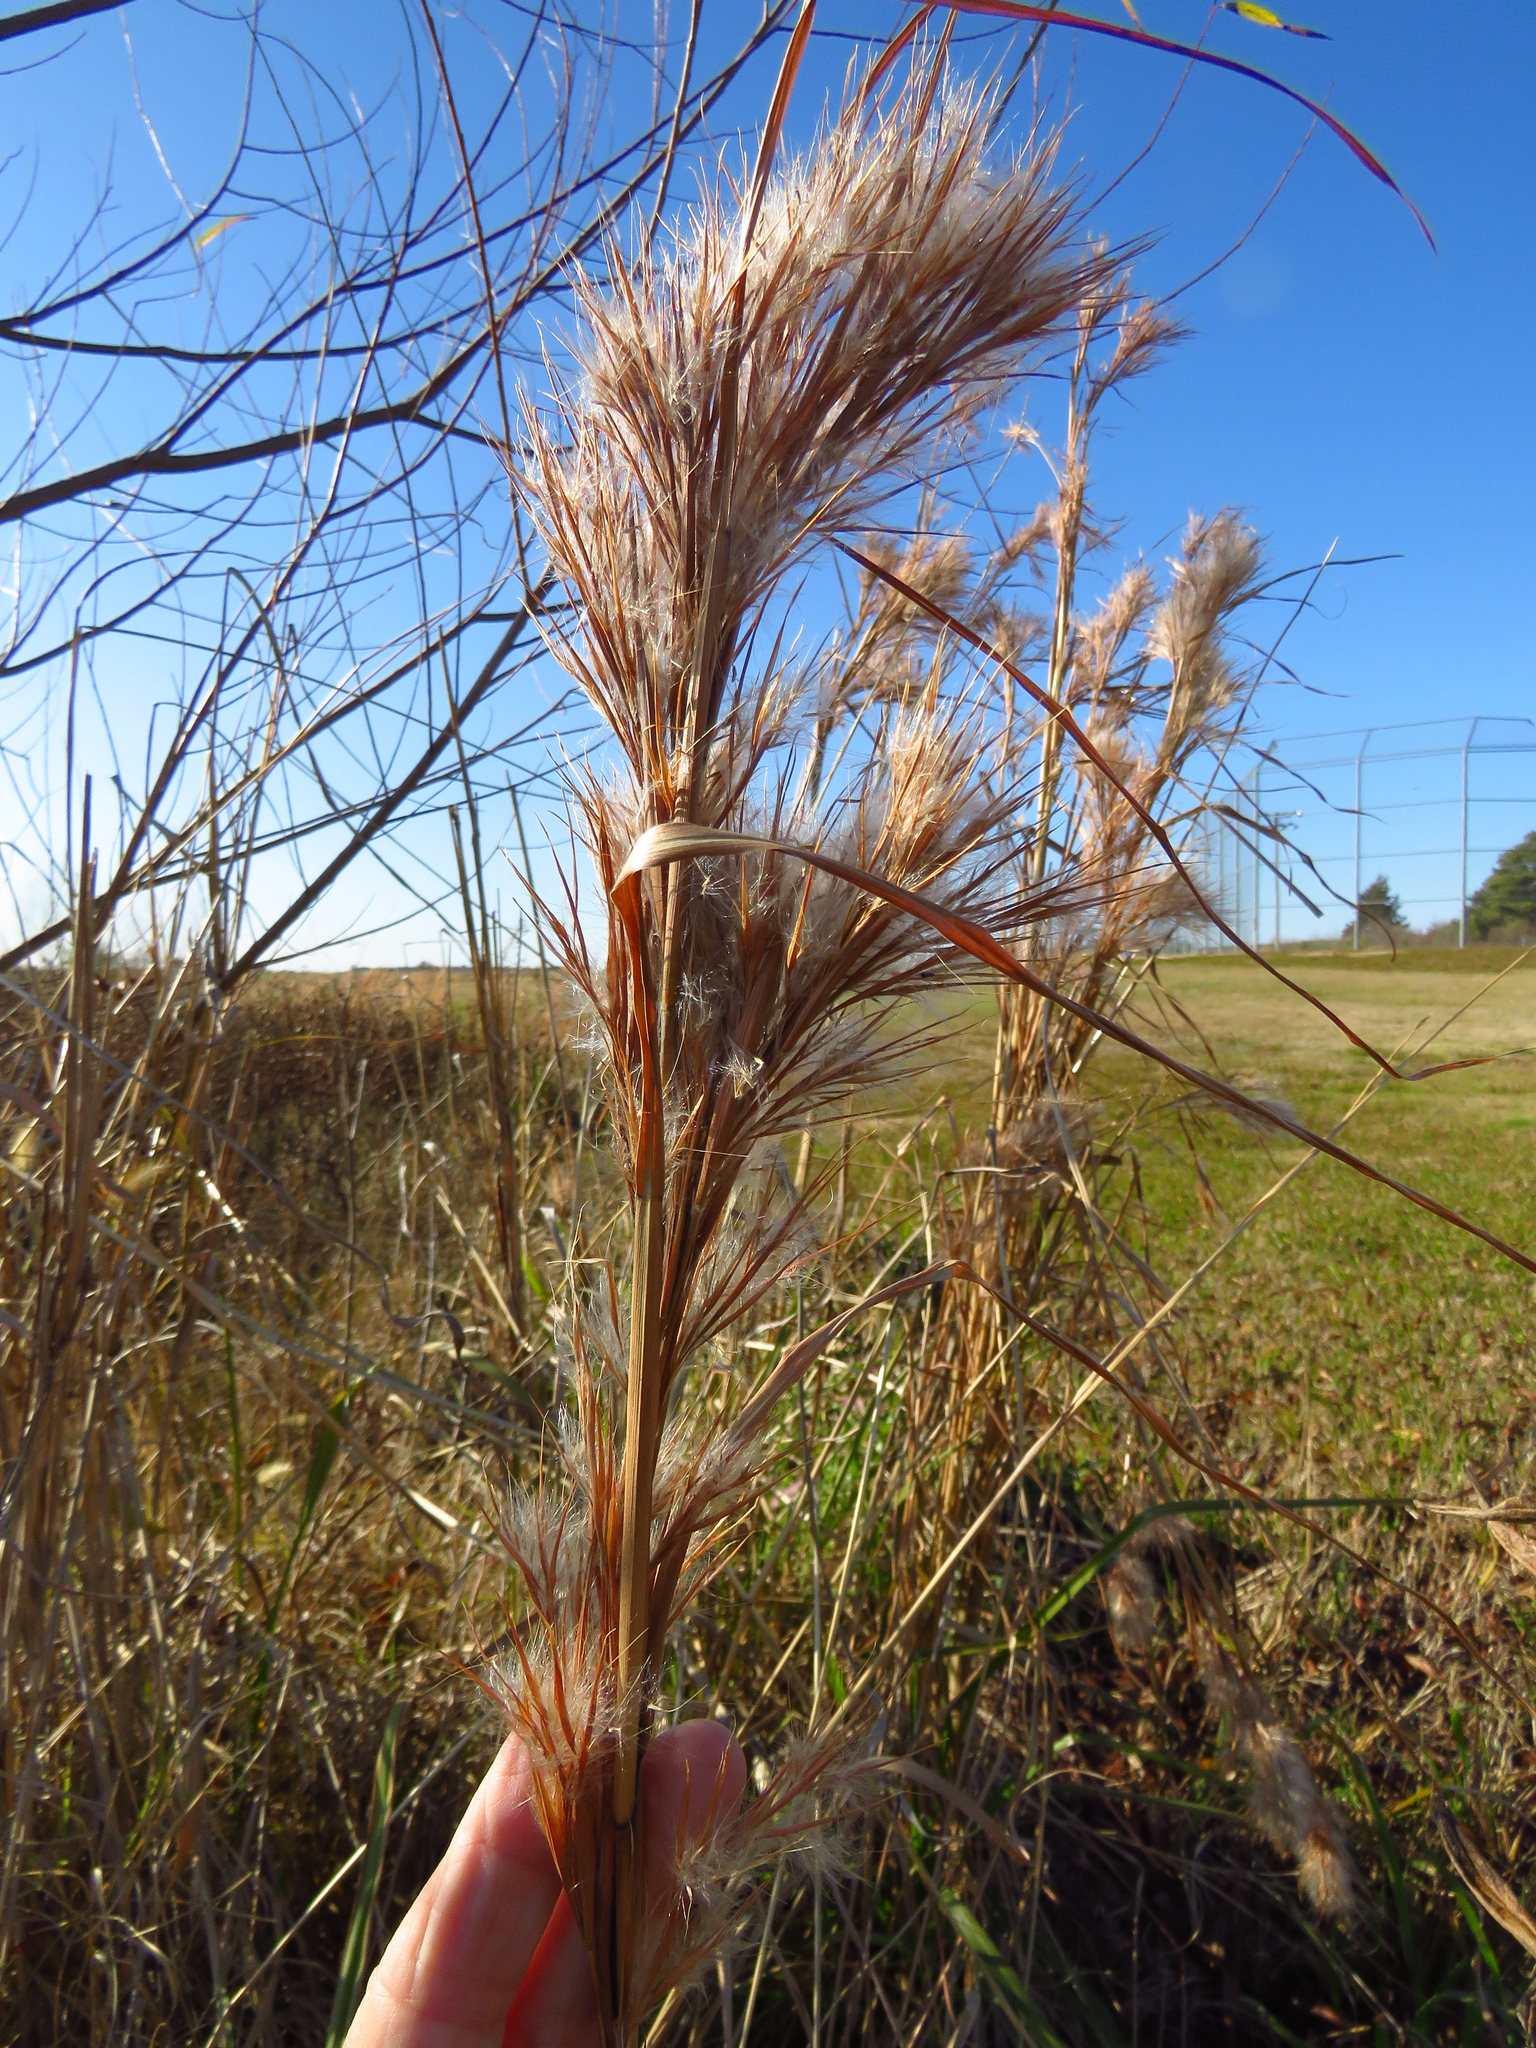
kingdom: Plantae
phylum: Tracheophyta
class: Liliopsida
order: Poales
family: Poaceae
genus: Andropogon
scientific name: Andropogon tenuispatheus
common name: Bushy bluestem
